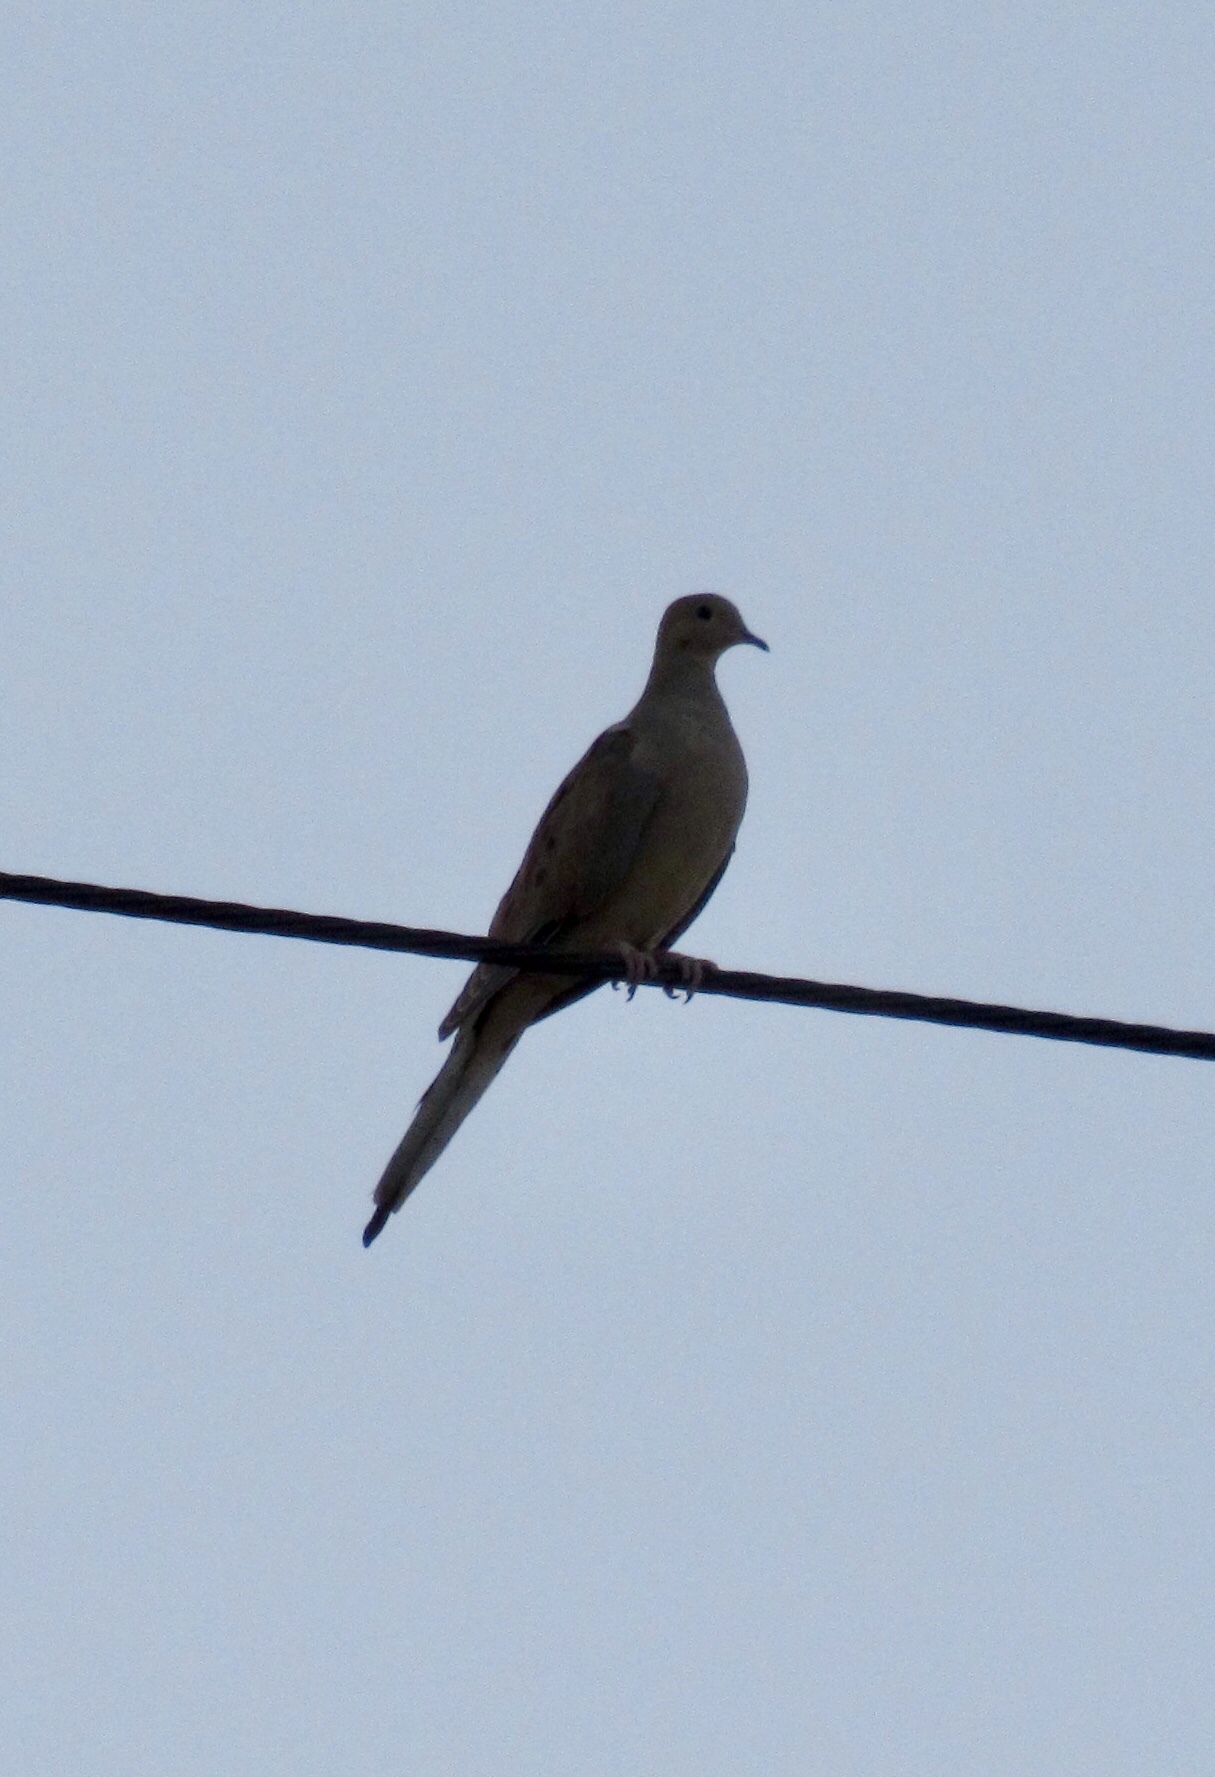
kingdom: Animalia
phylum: Chordata
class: Aves
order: Columbiformes
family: Columbidae
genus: Zenaida
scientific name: Zenaida macroura
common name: Mourning dove
